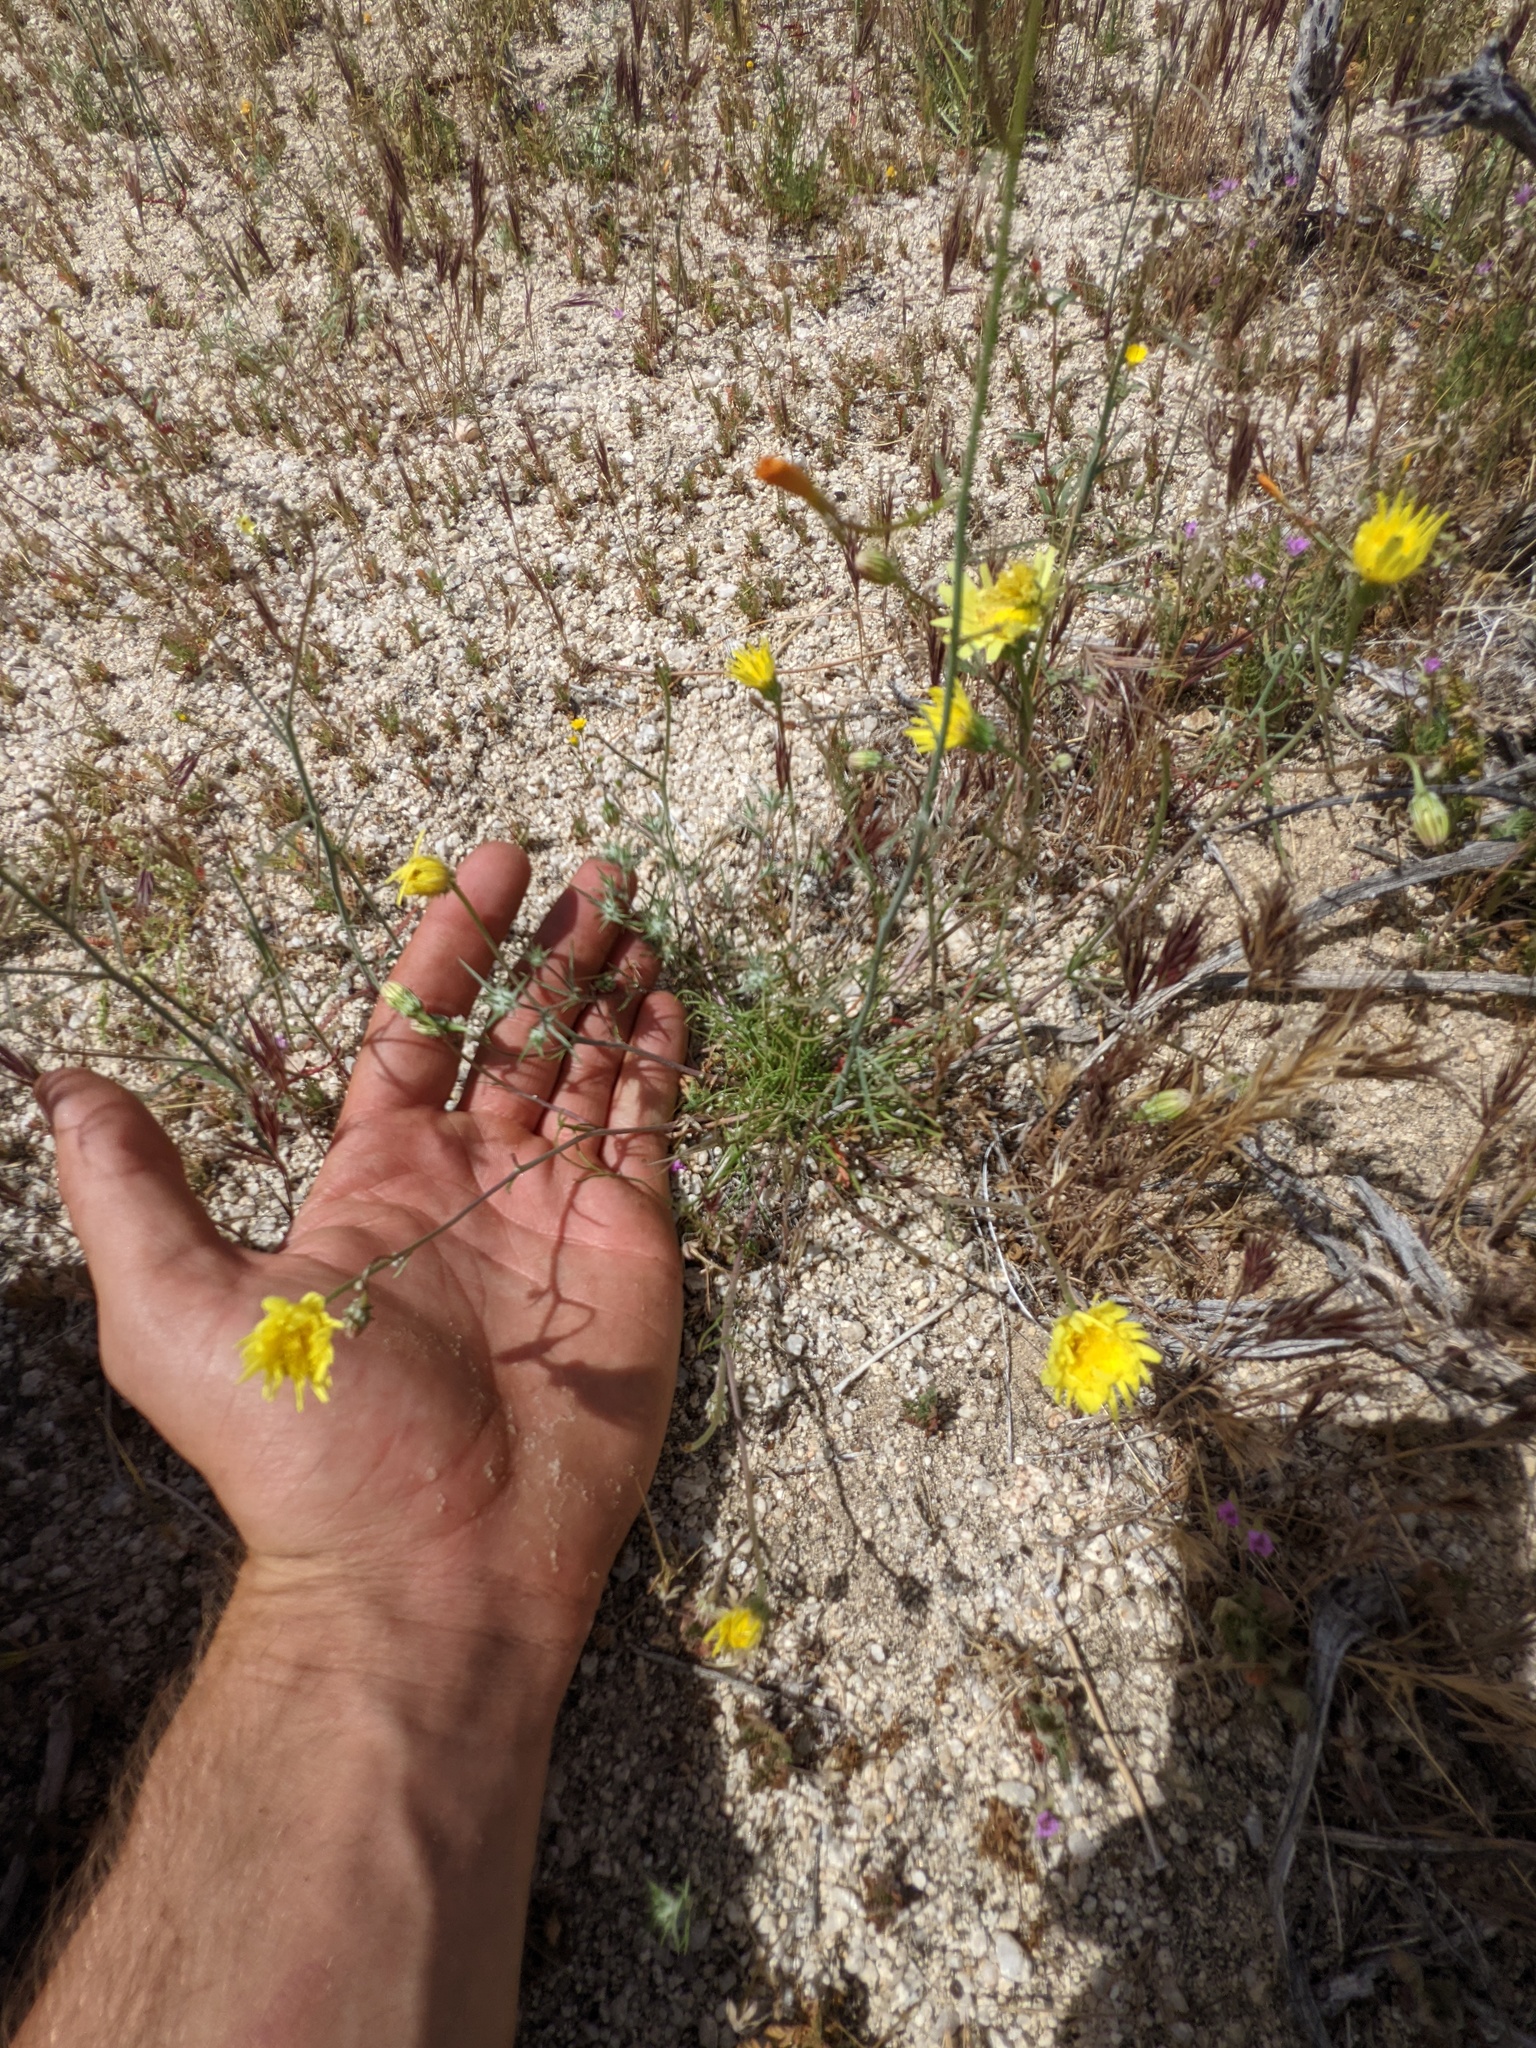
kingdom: Plantae
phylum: Tracheophyta
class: Magnoliopsida
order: Asterales
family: Asteraceae
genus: Malacothrix
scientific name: Malacothrix glabrata
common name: Smooth desert-dandelion
